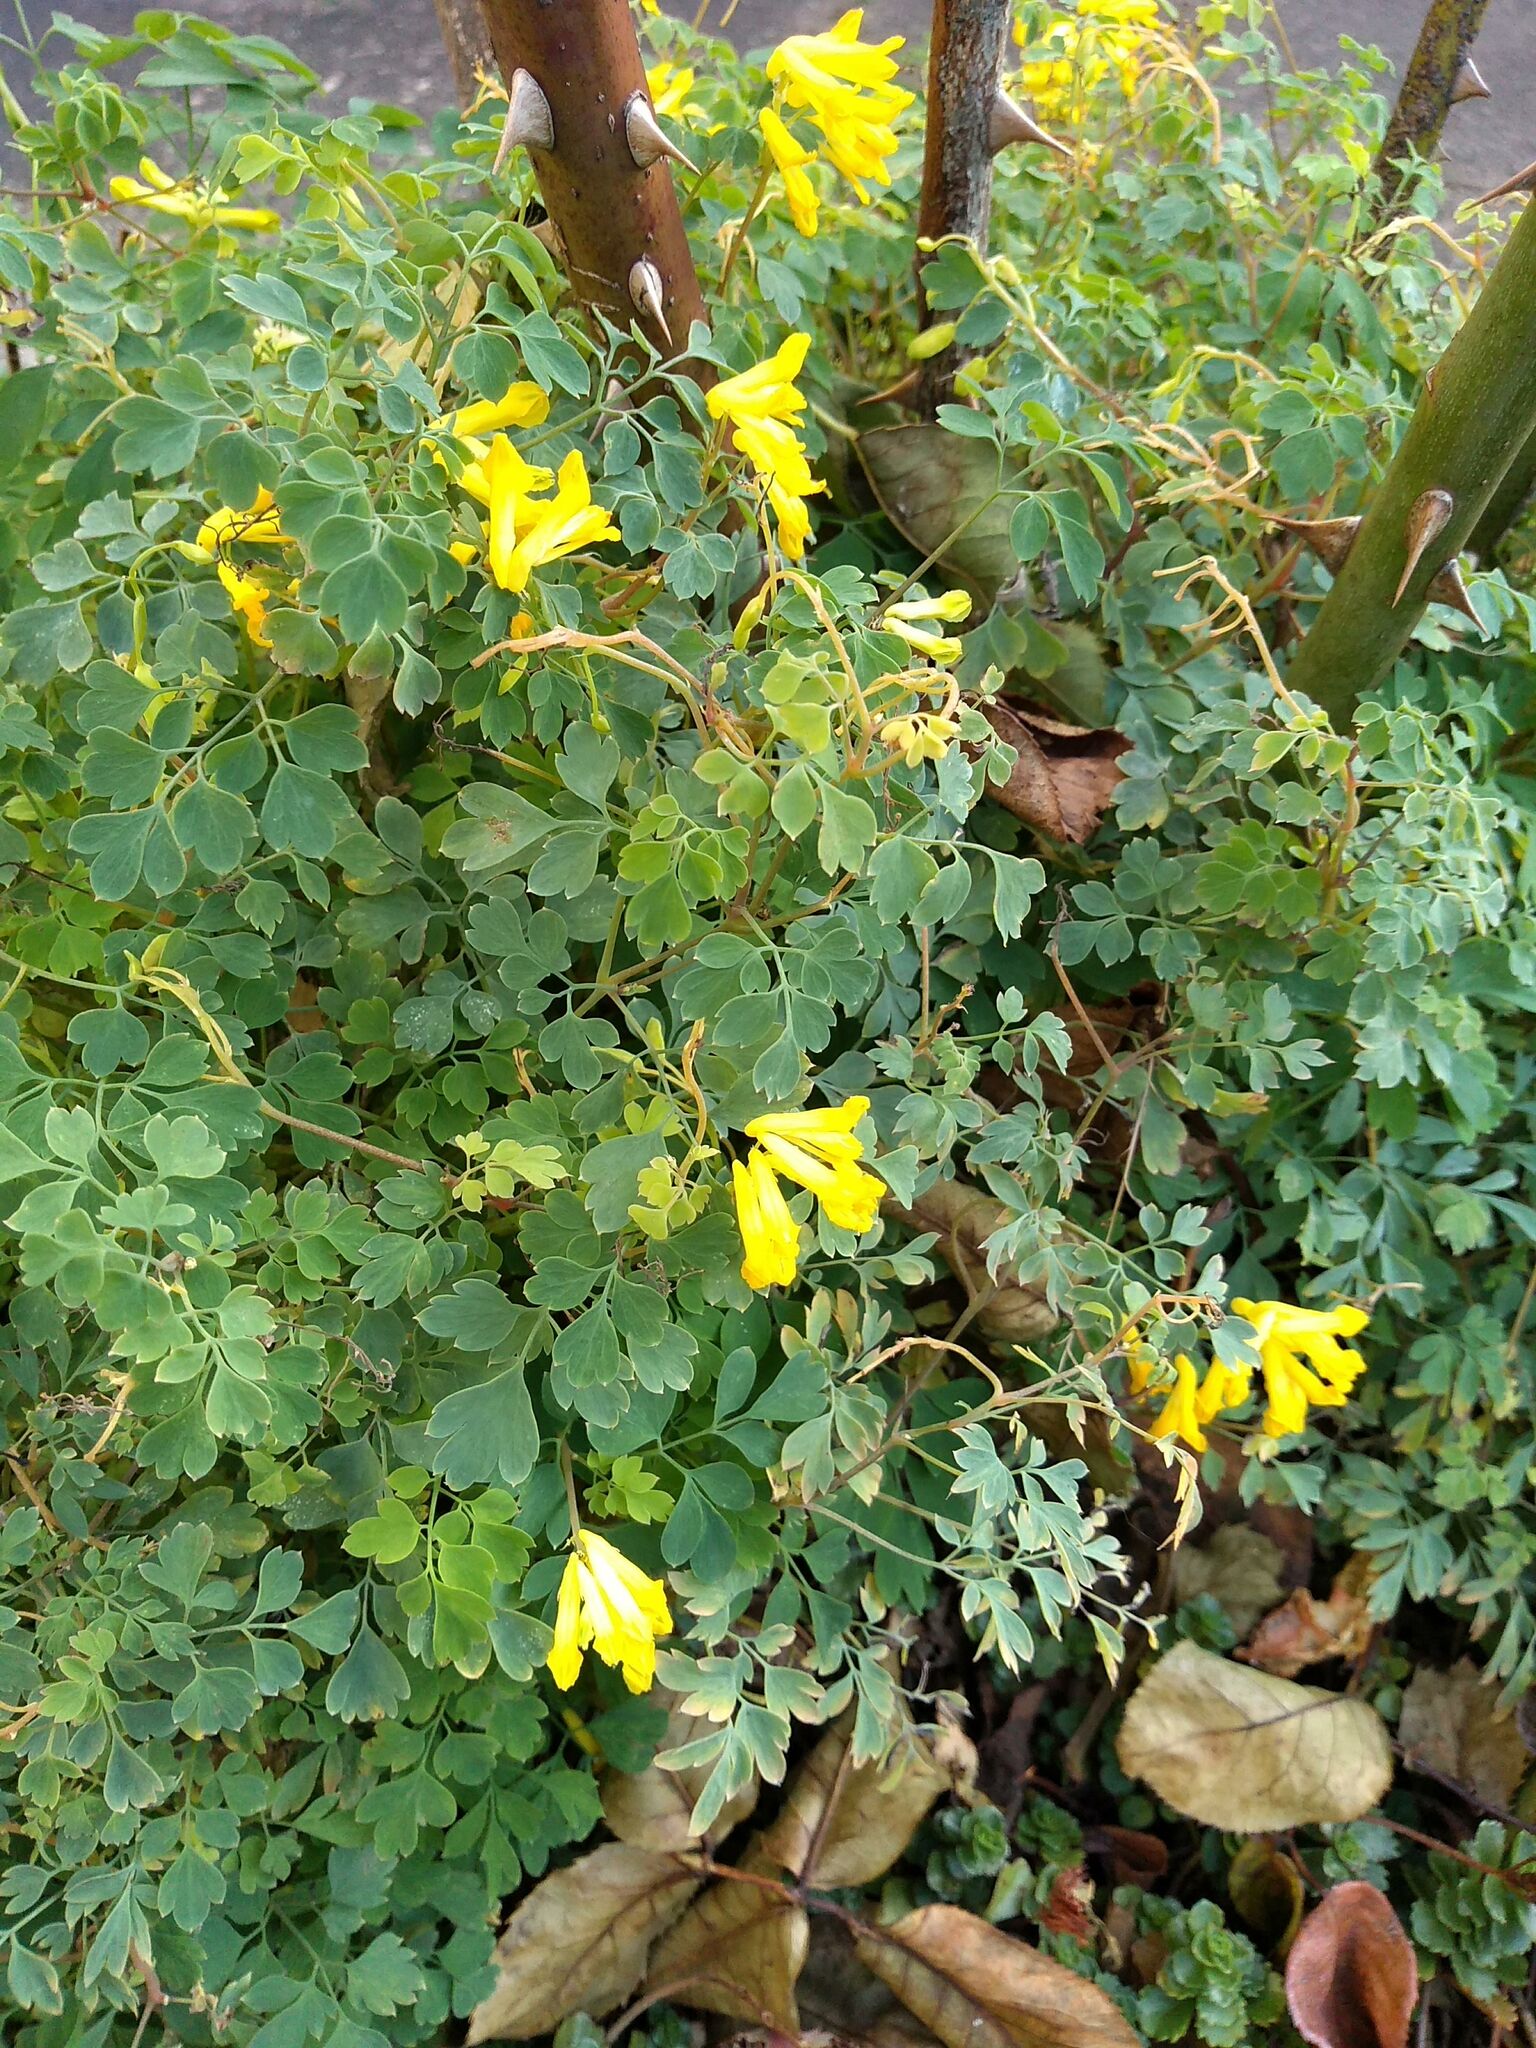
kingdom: Plantae
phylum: Tracheophyta
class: Magnoliopsida
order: Ranunculales
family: Papaveraceae
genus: Pseudofumaria
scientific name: Pseudofumaria lutea
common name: Yellow corydalis
